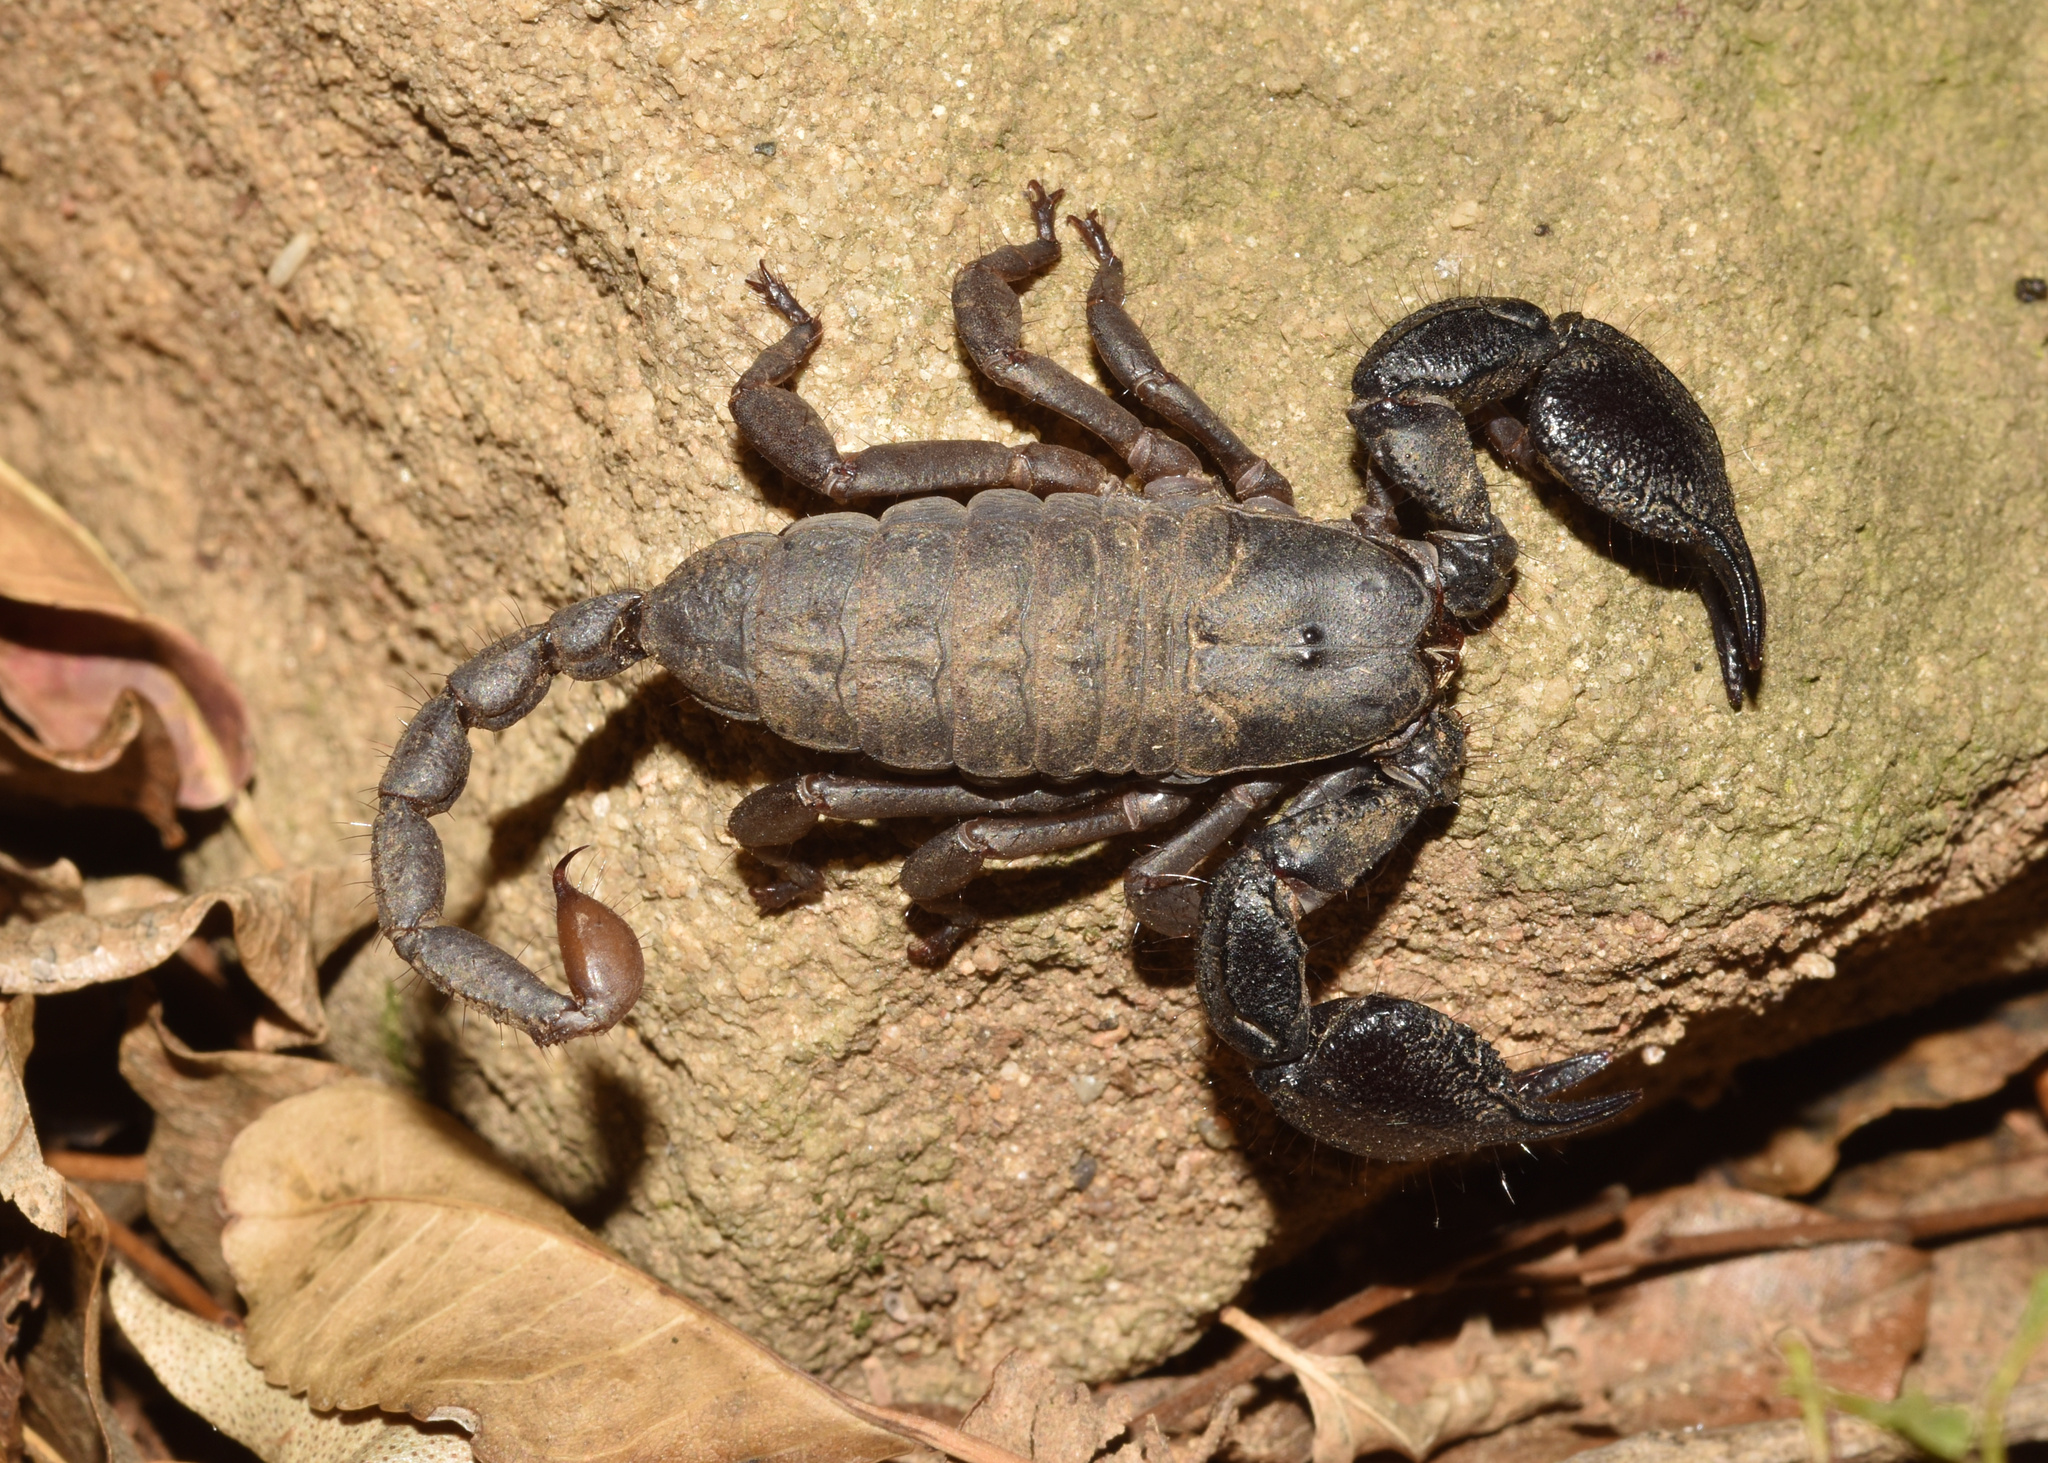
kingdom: Animalia
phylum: Arthropoda
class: Arachnida
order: Scorpiones
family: Hormuridae
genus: Opisthacanthus
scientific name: Opisthacanthus validus
